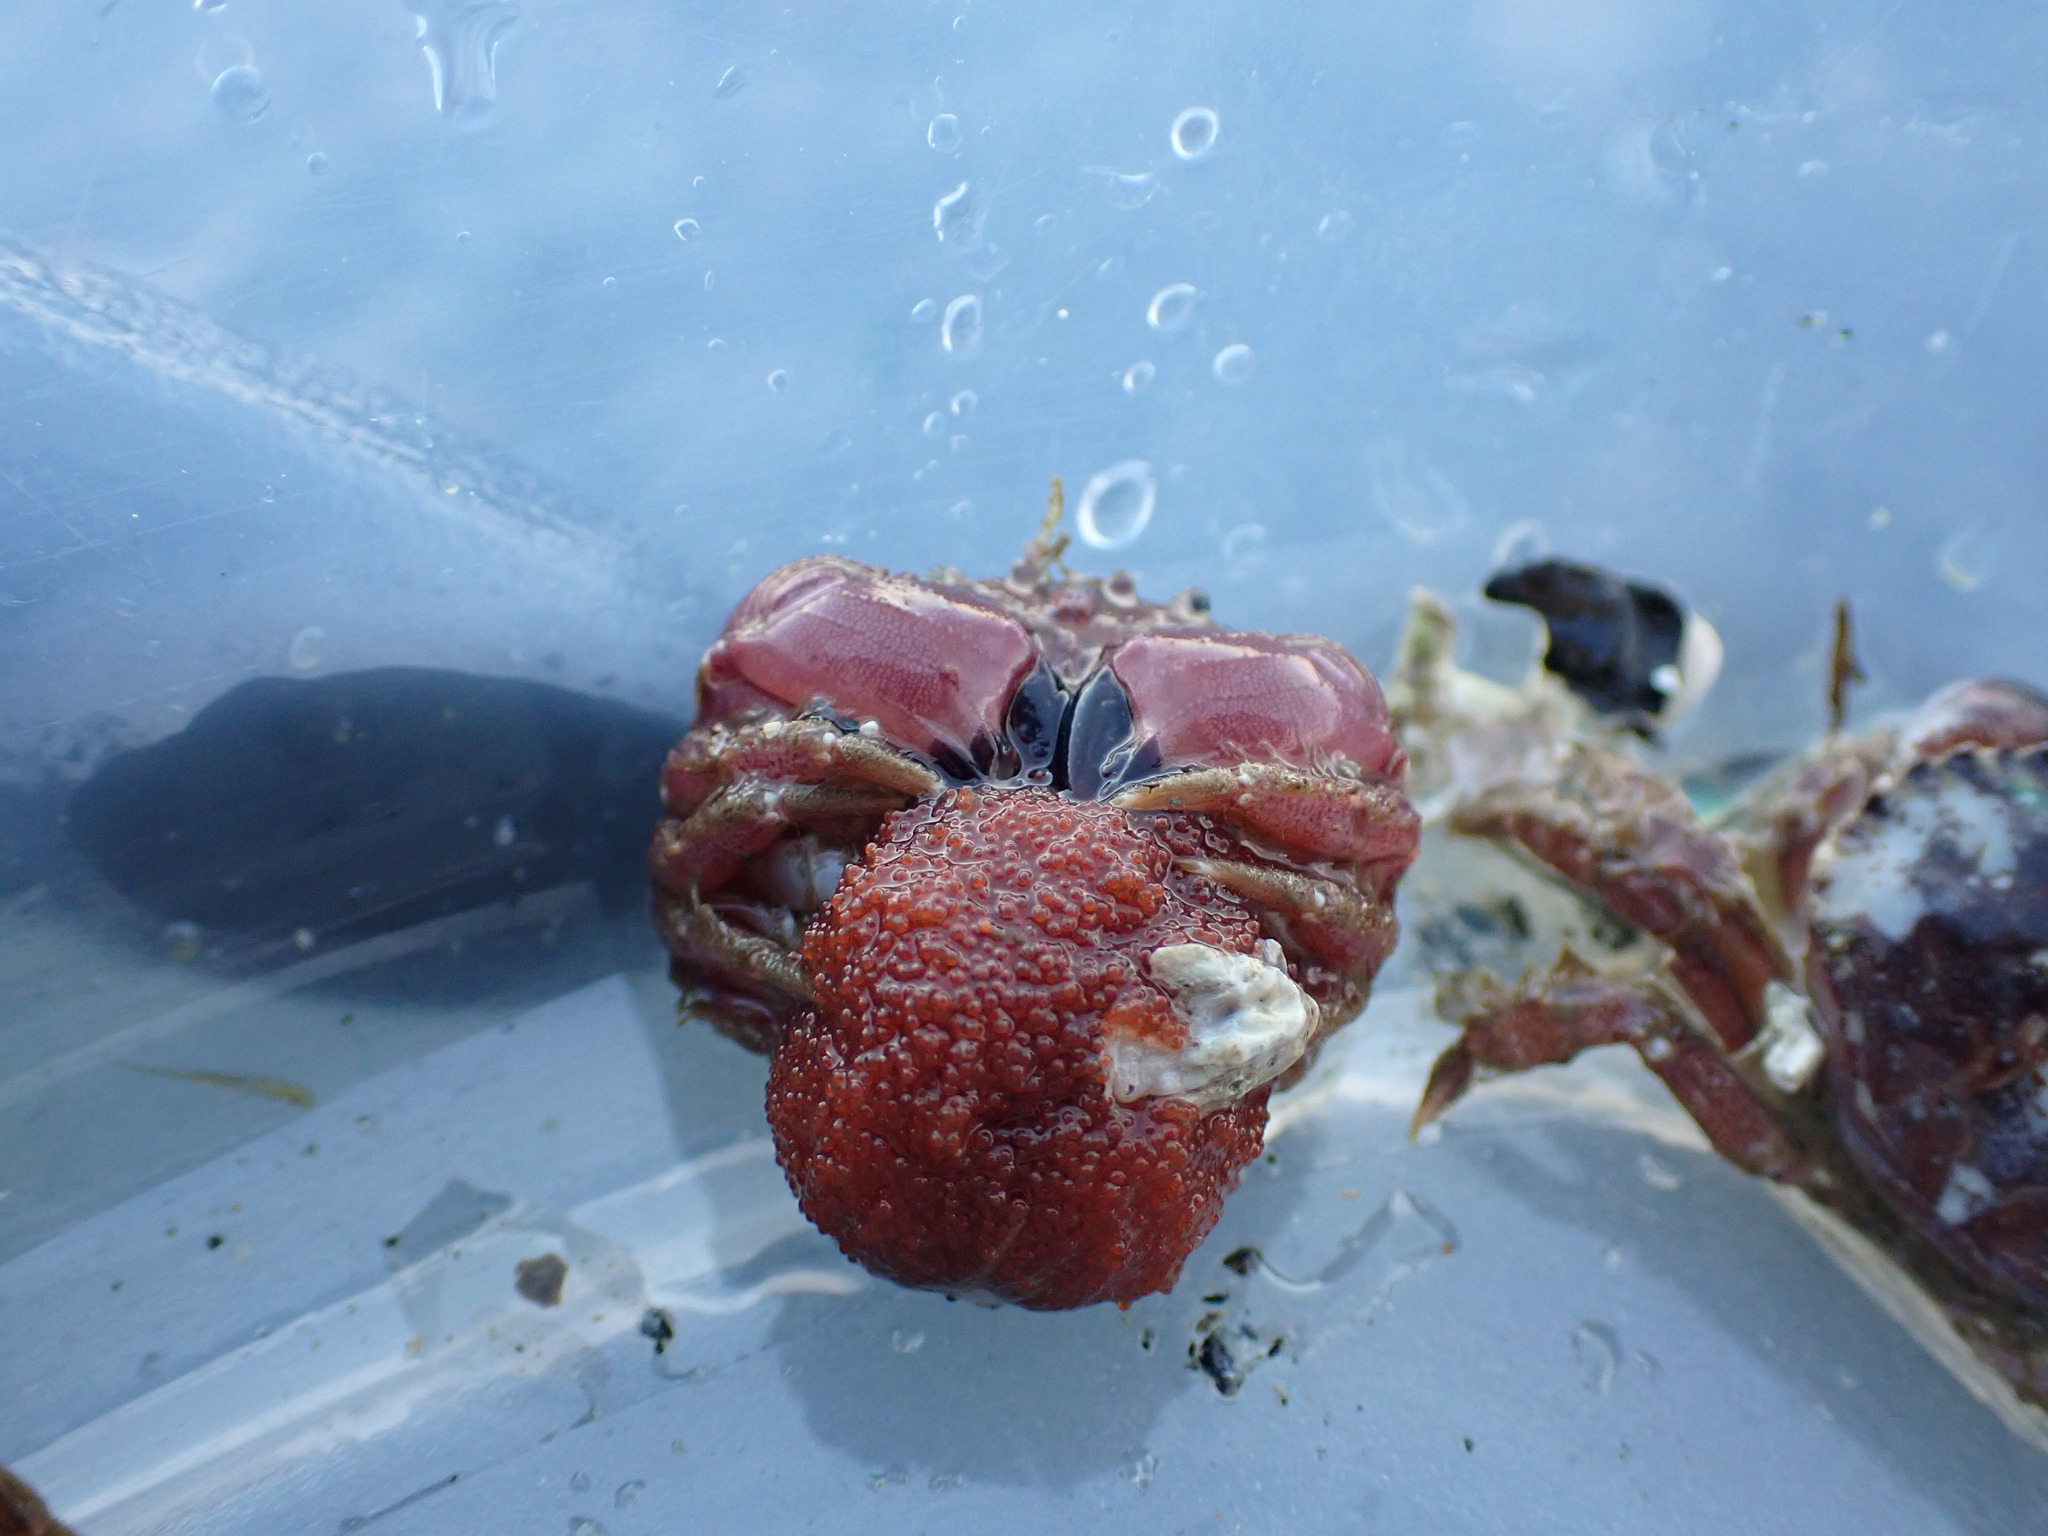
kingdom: Animalia
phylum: Arthropoda
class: Malacostraca
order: Decapoda
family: Cancridae
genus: Glebocarcinus
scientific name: Glebocarcinus oregonensis
